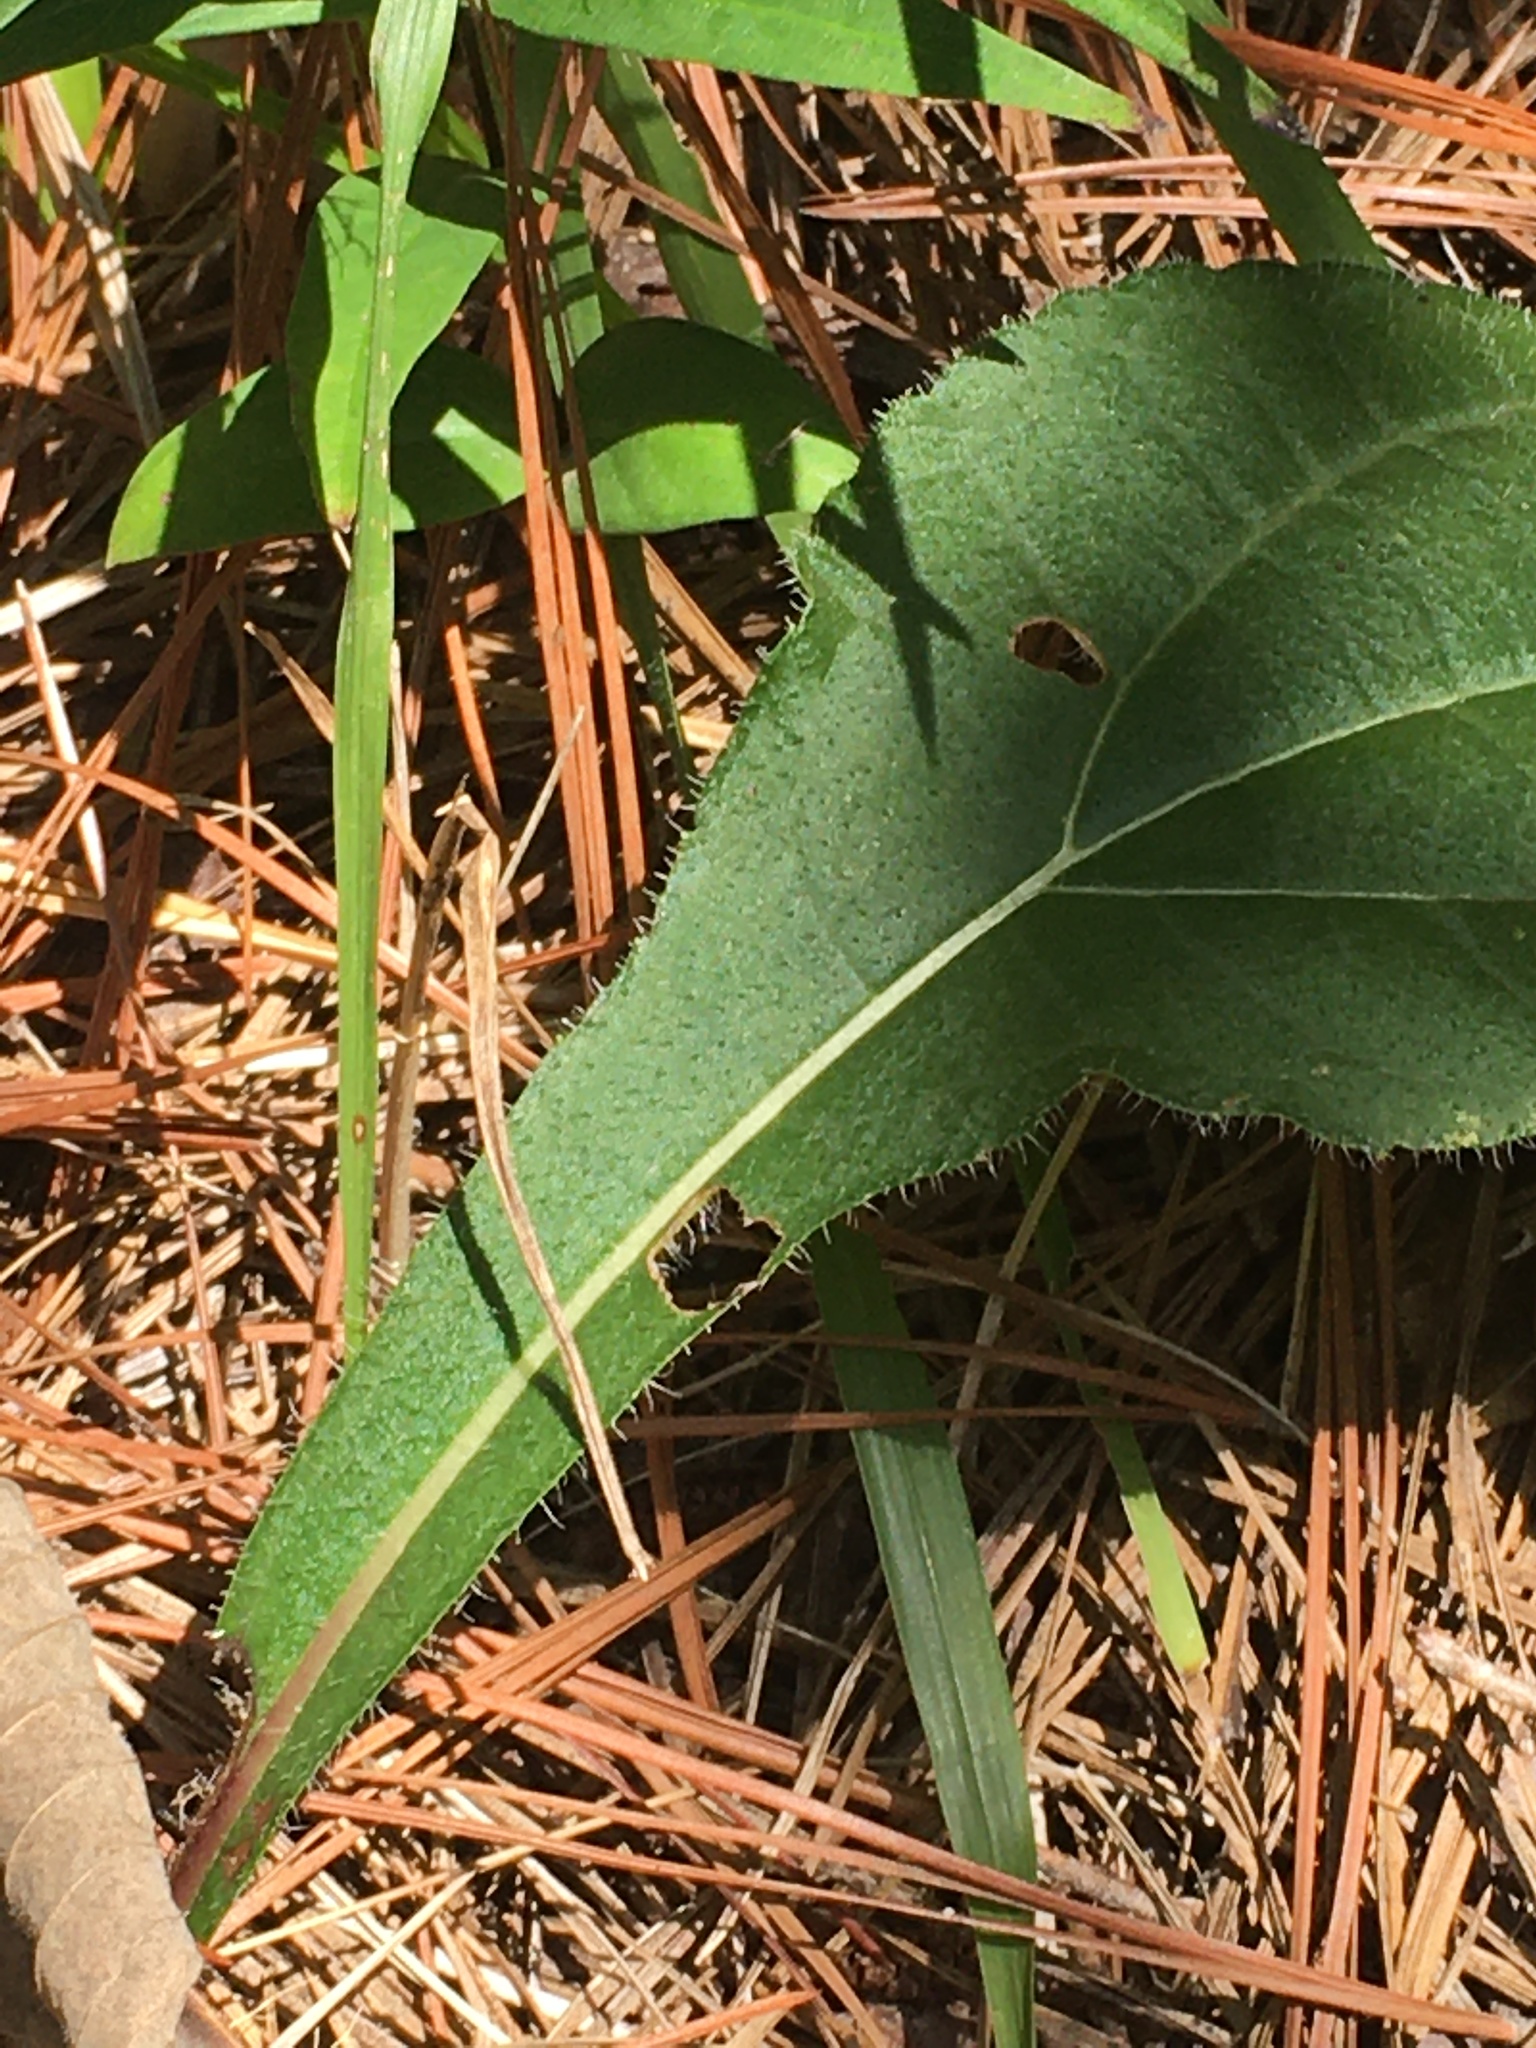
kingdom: Plantae
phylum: Tracheophyta
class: Magnoliopsida
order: Asterales
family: Asteraceae
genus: Helianthus
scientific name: Helianthus atrorubens
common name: Dark-eyed sunflower
